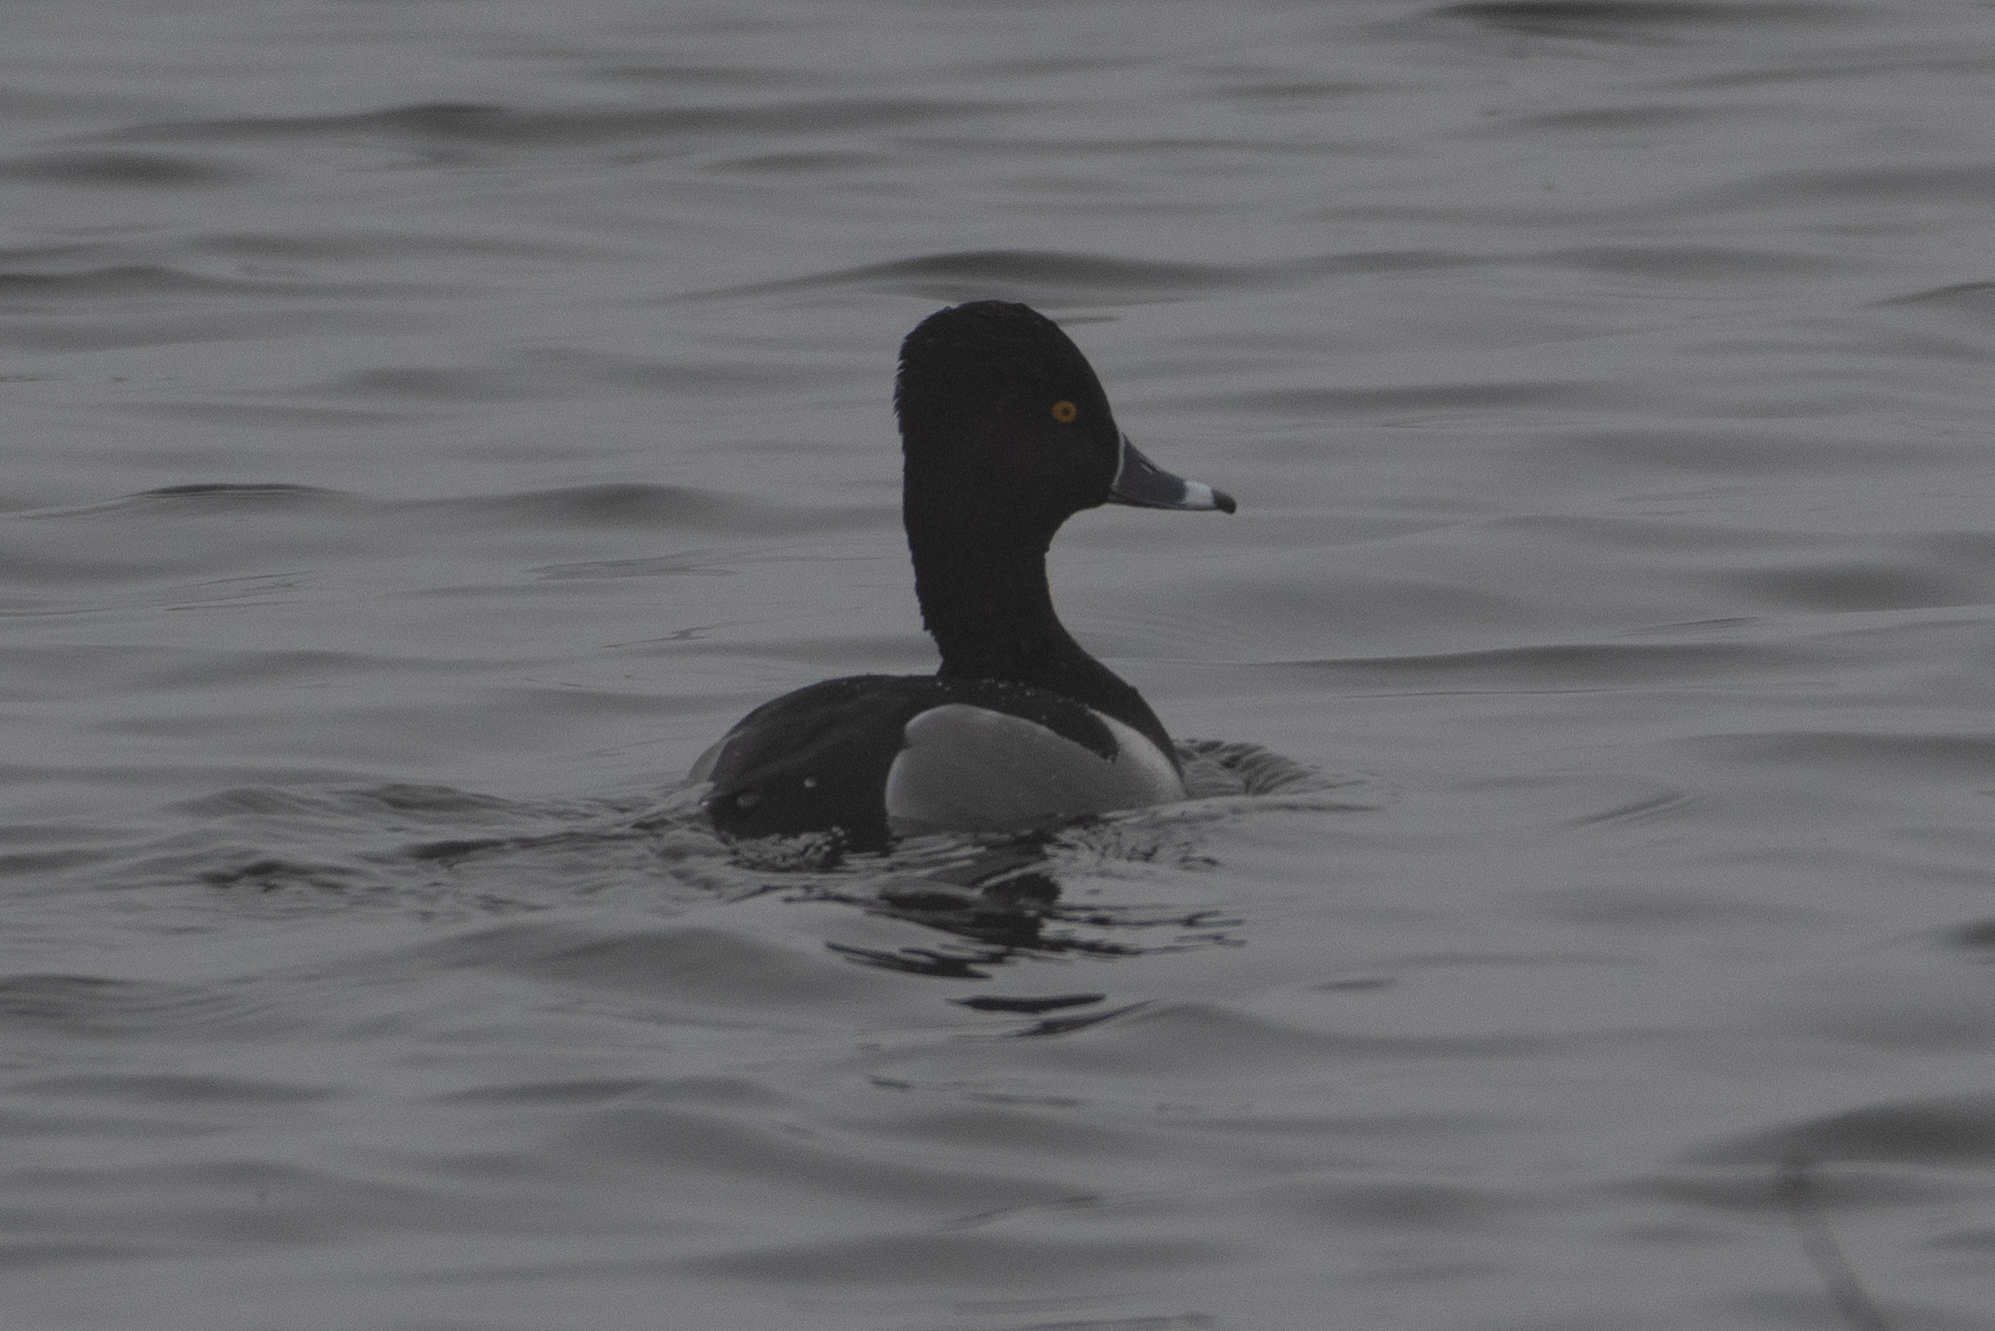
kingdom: Animalia
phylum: Chordata
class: Aves
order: Anseriformes
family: Anatidae
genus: Aythya
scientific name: Aythya collaris
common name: Ring-necked duck
